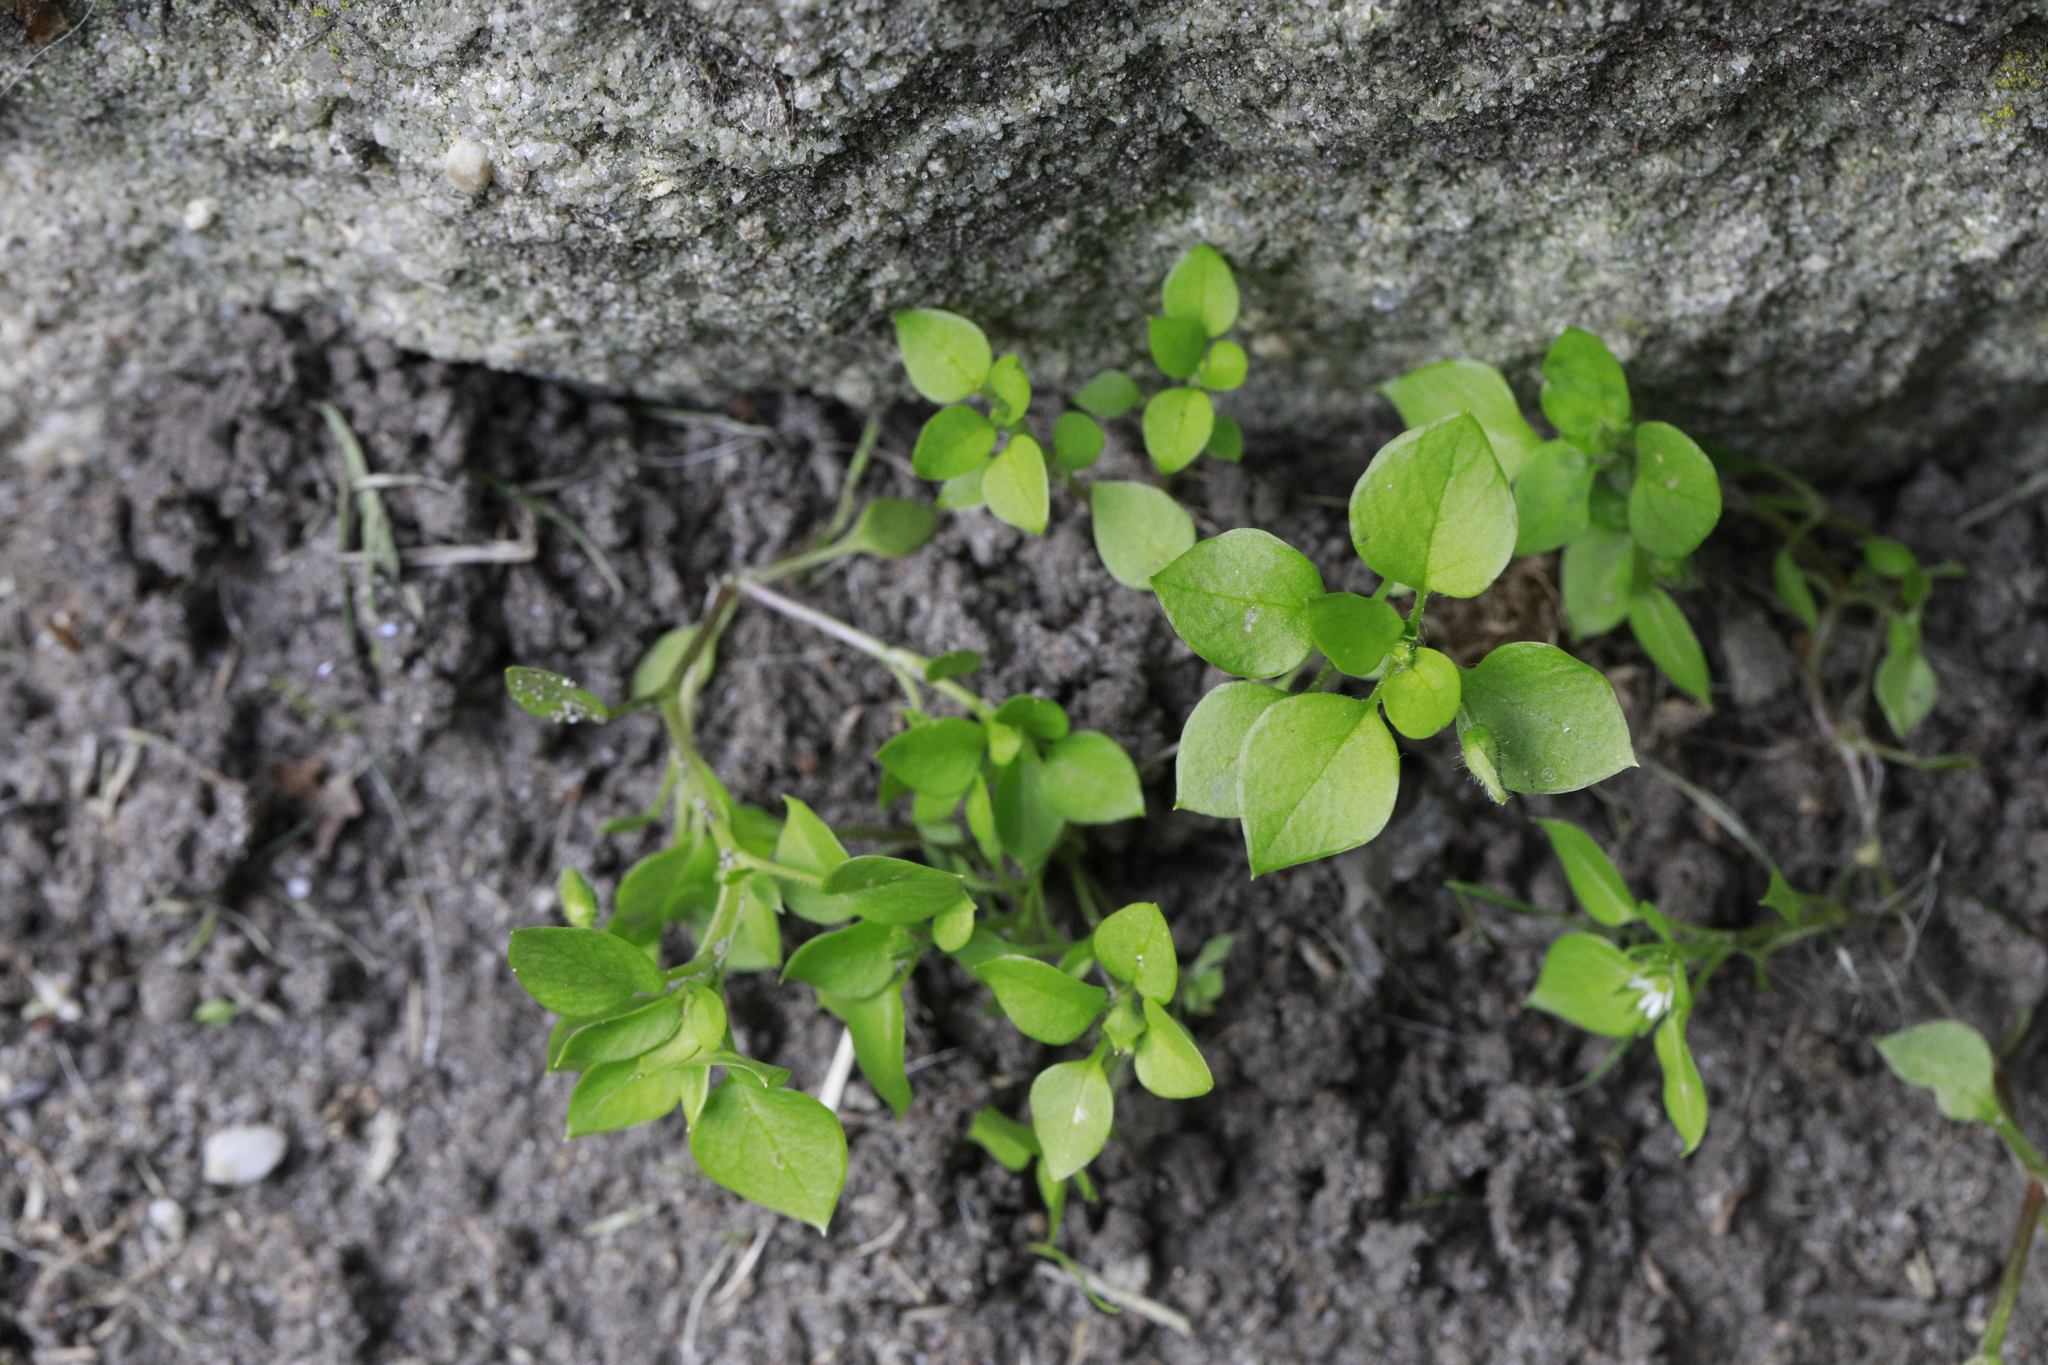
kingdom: Plantae
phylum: Tracheophyta
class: Magnoliopsida
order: Caryophyllales
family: Caryophyllaceae
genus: Stellaria
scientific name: Stellaria media
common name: Common chickweed
